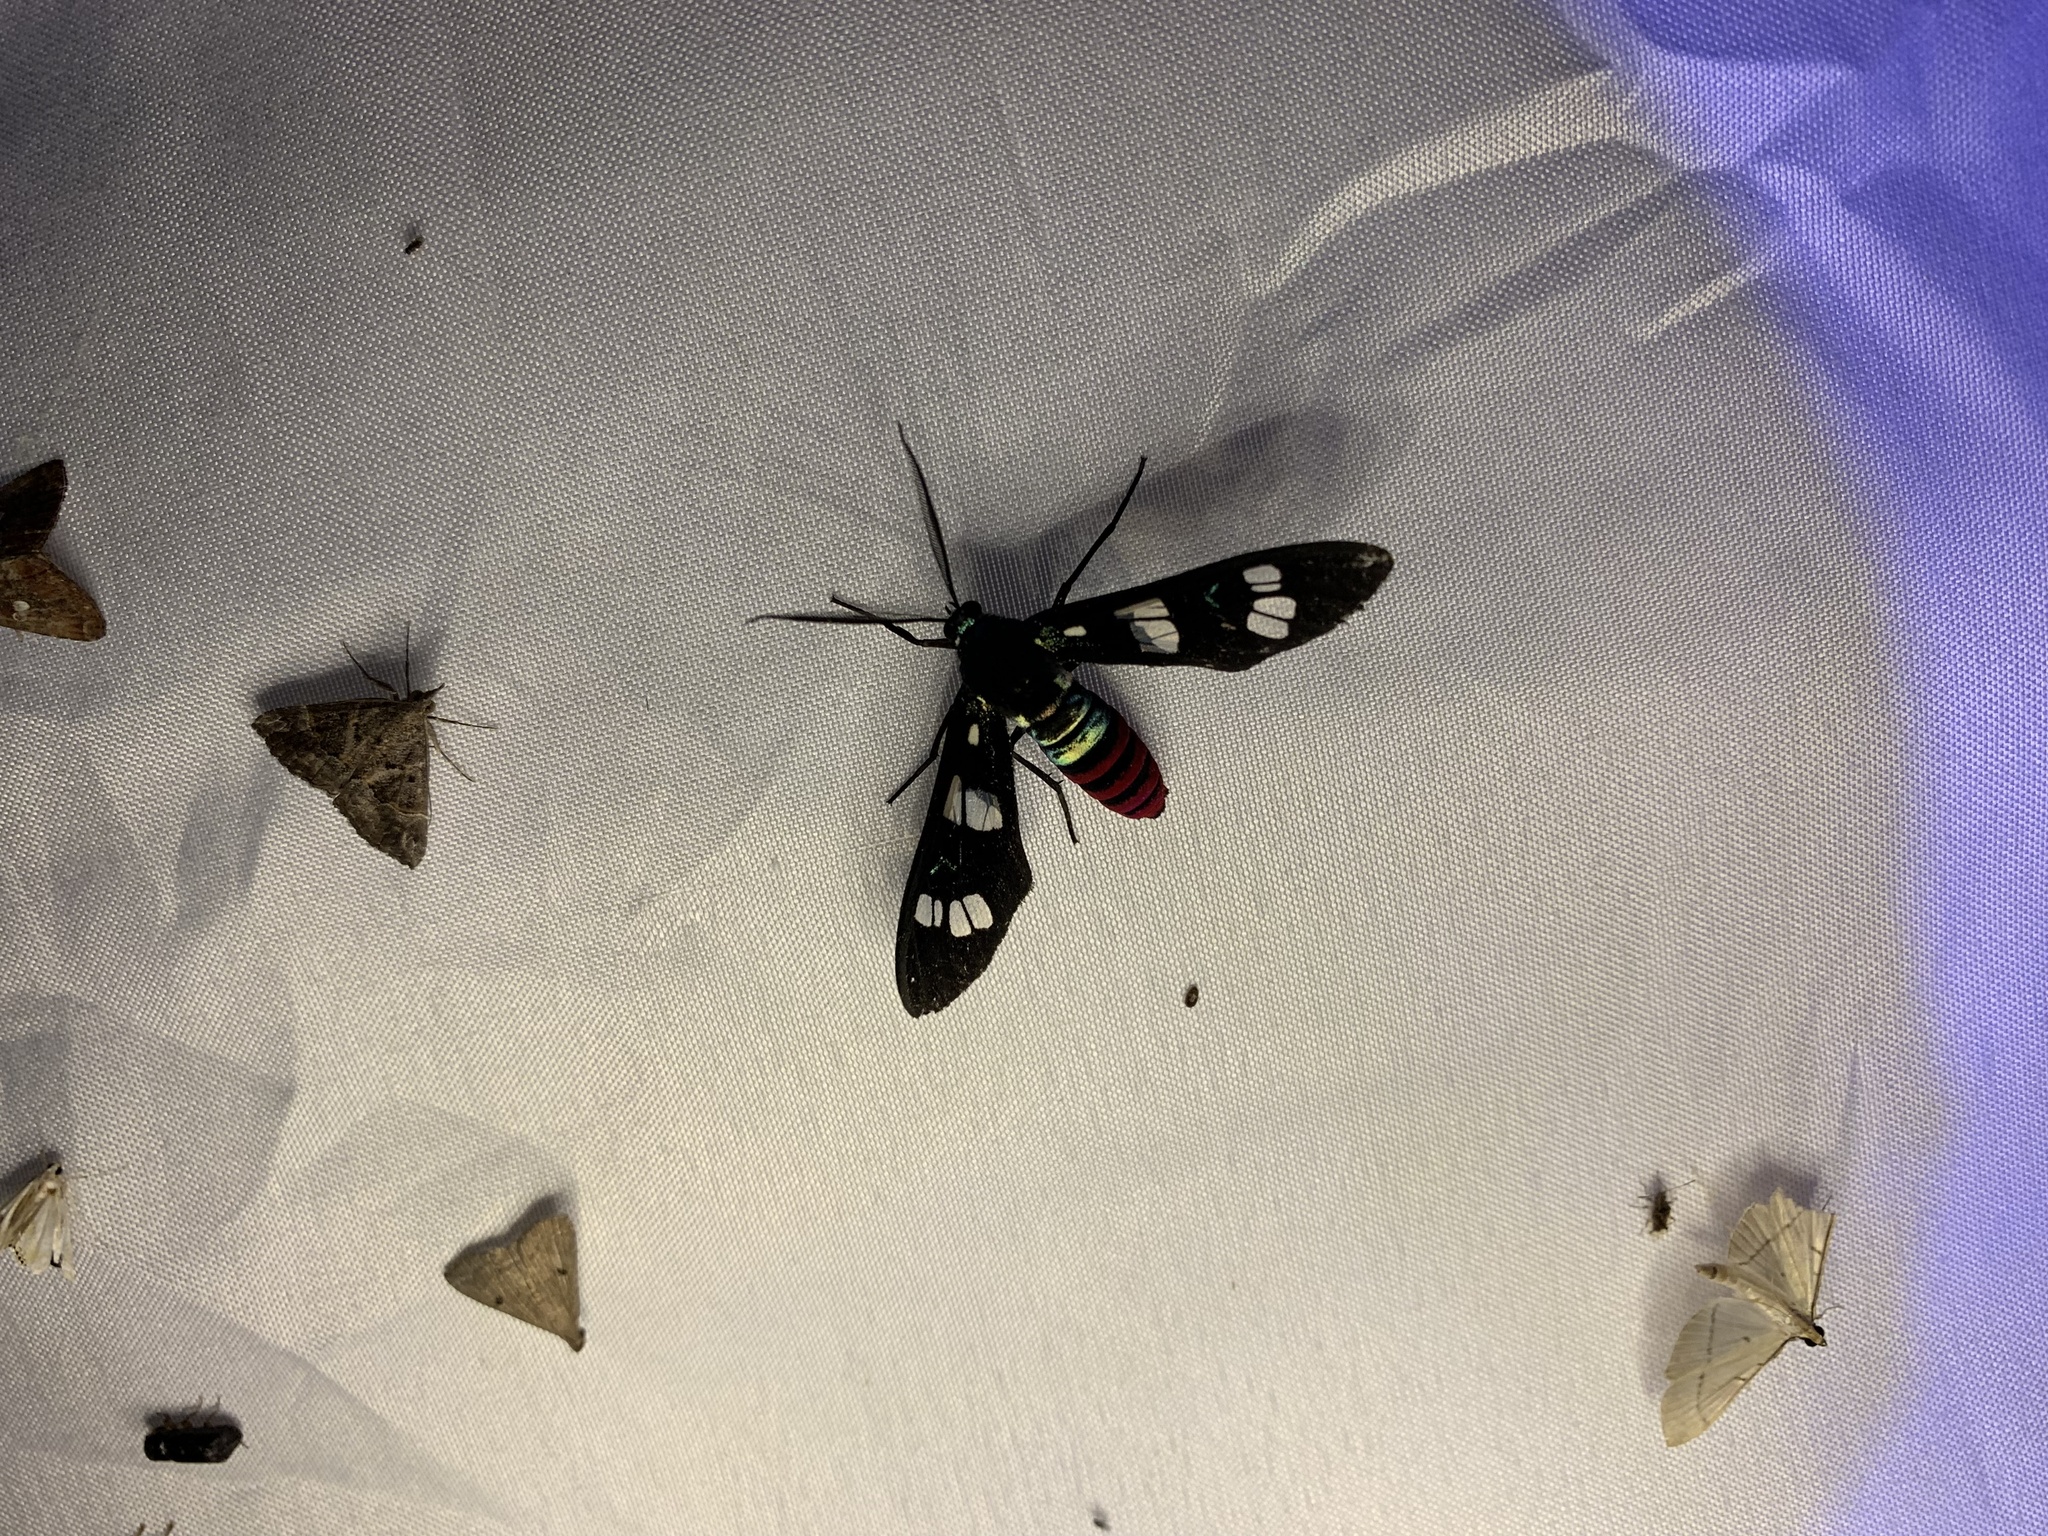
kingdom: Animalia
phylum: Arthropoda
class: Insecta
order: Lepidoptera
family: Erebidae
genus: Euchromia
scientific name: Euchromia creusa
